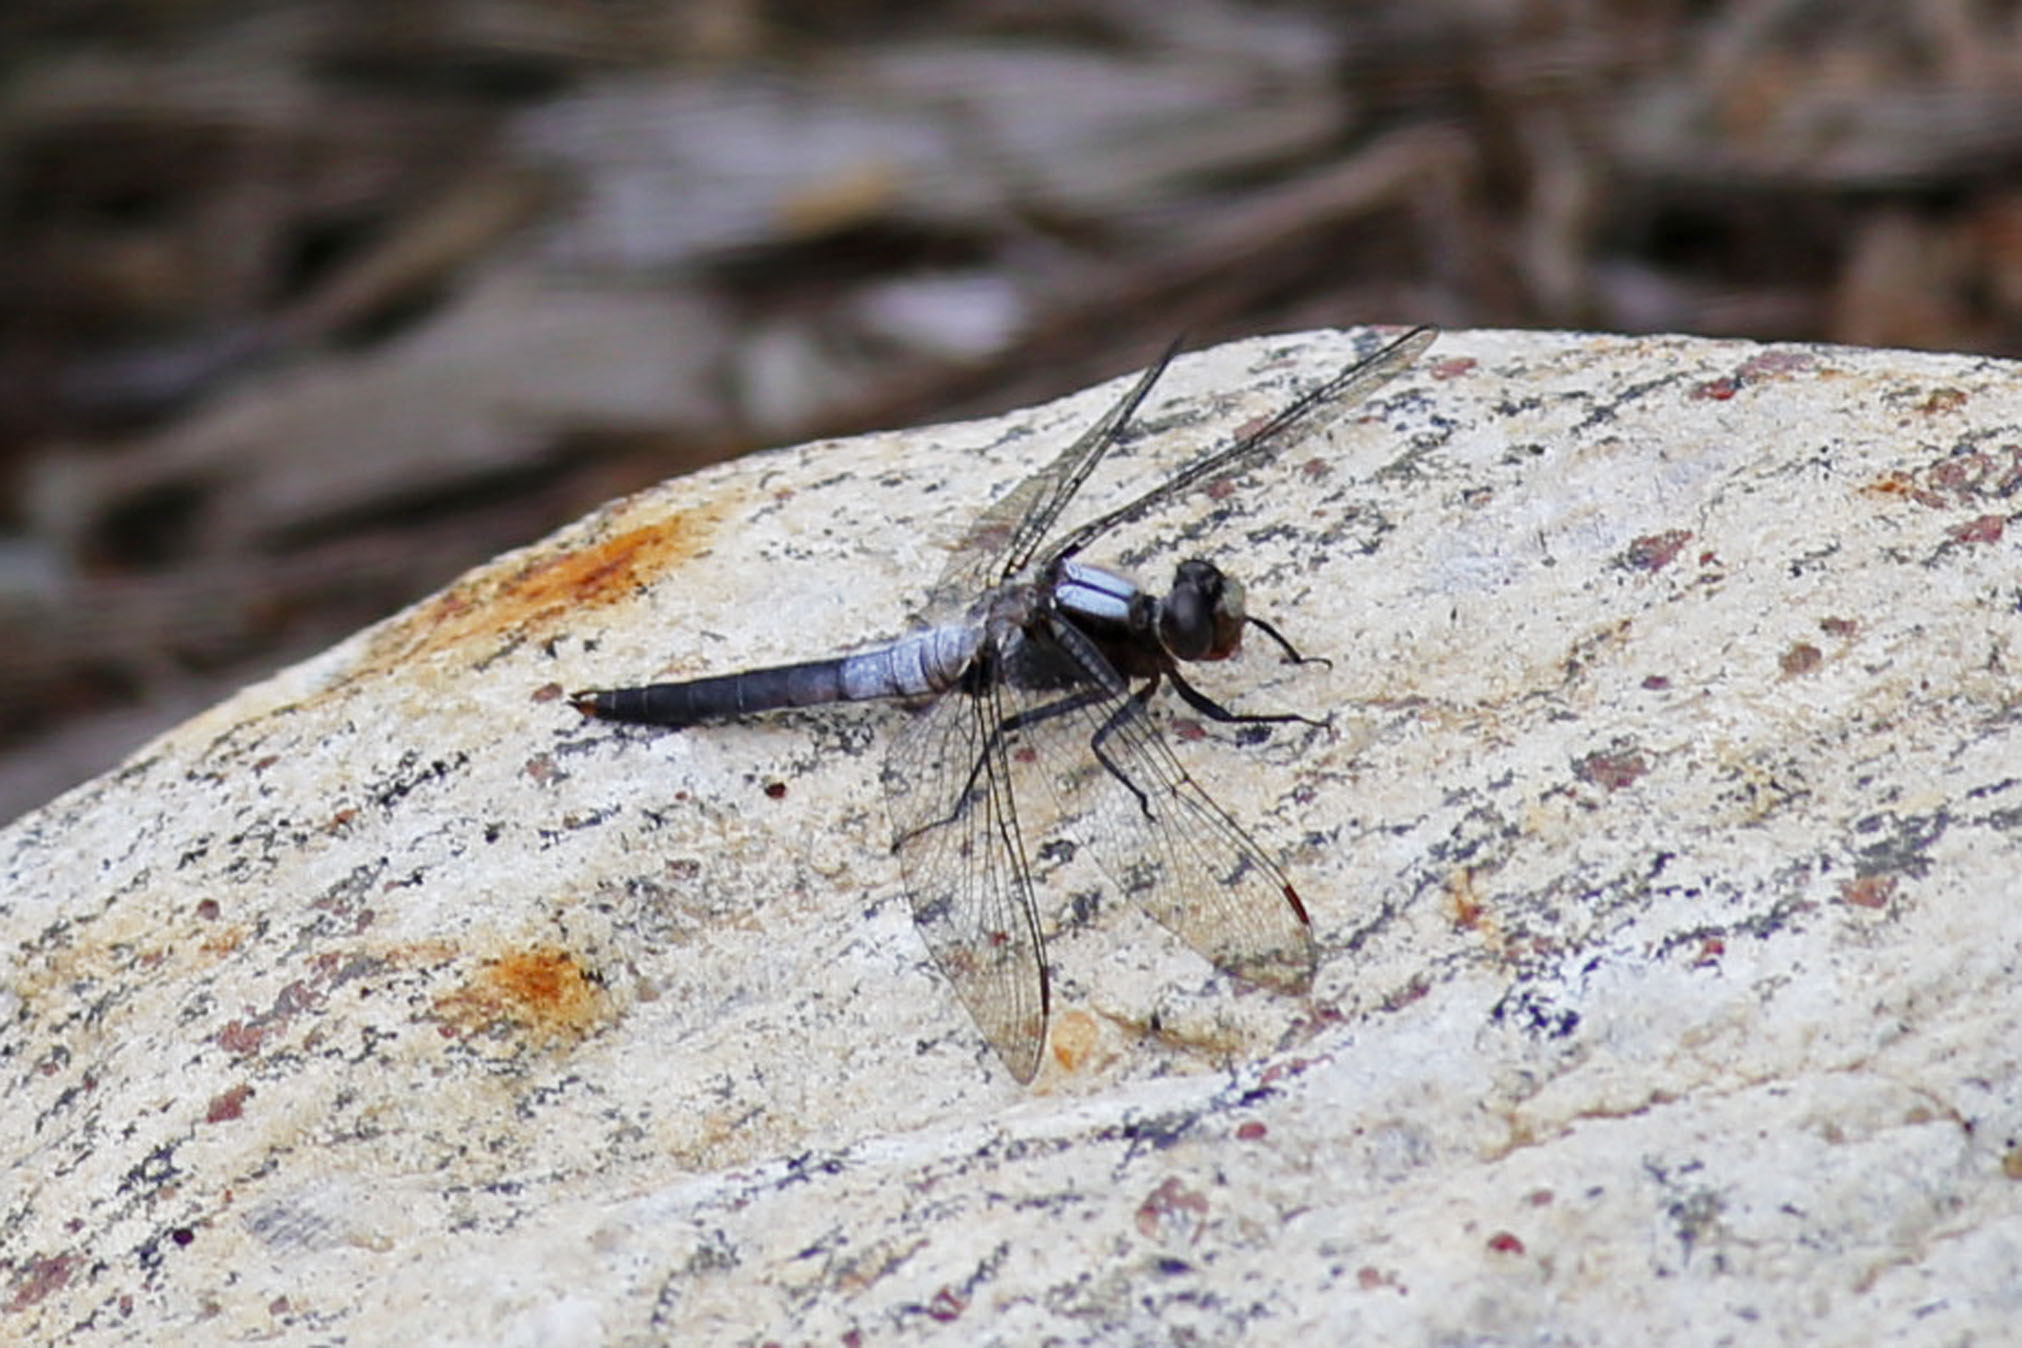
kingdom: Animalia
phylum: Arthropoda
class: Insecta
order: Odonata
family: Libellulidae
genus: Ladona
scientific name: Ladona julia
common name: Chalk-fronted corporal
